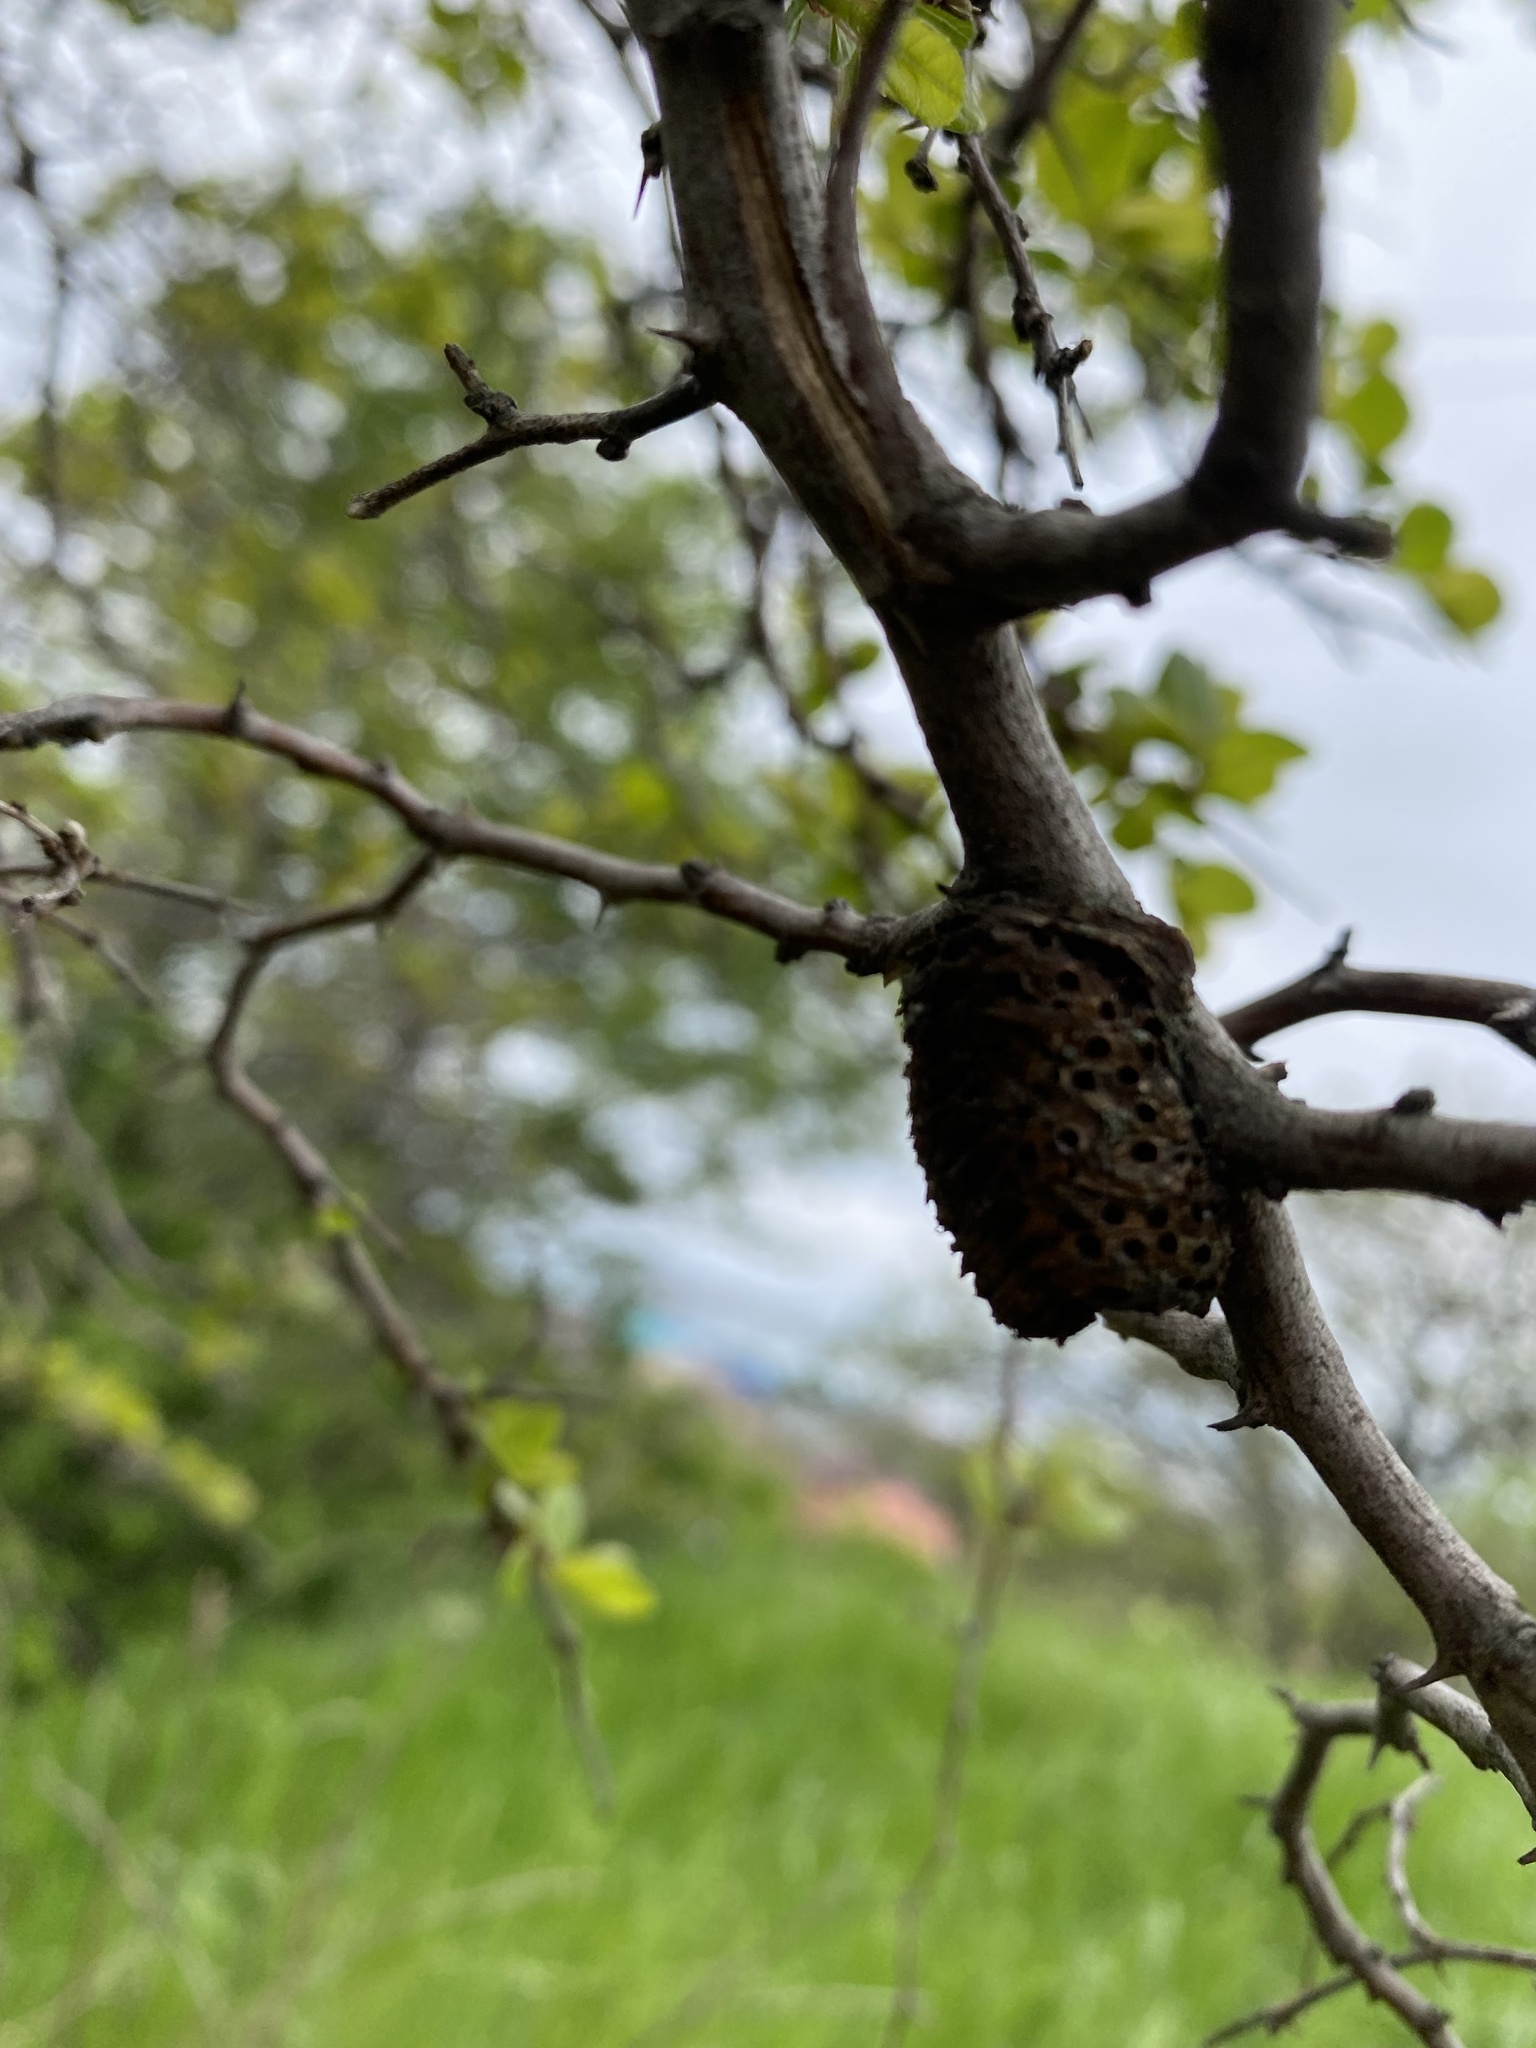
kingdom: Animalia
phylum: Arthropoda
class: Insecta
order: Mantodea
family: Mantidae
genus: Hierodula
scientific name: Hierodula transcaucasica
